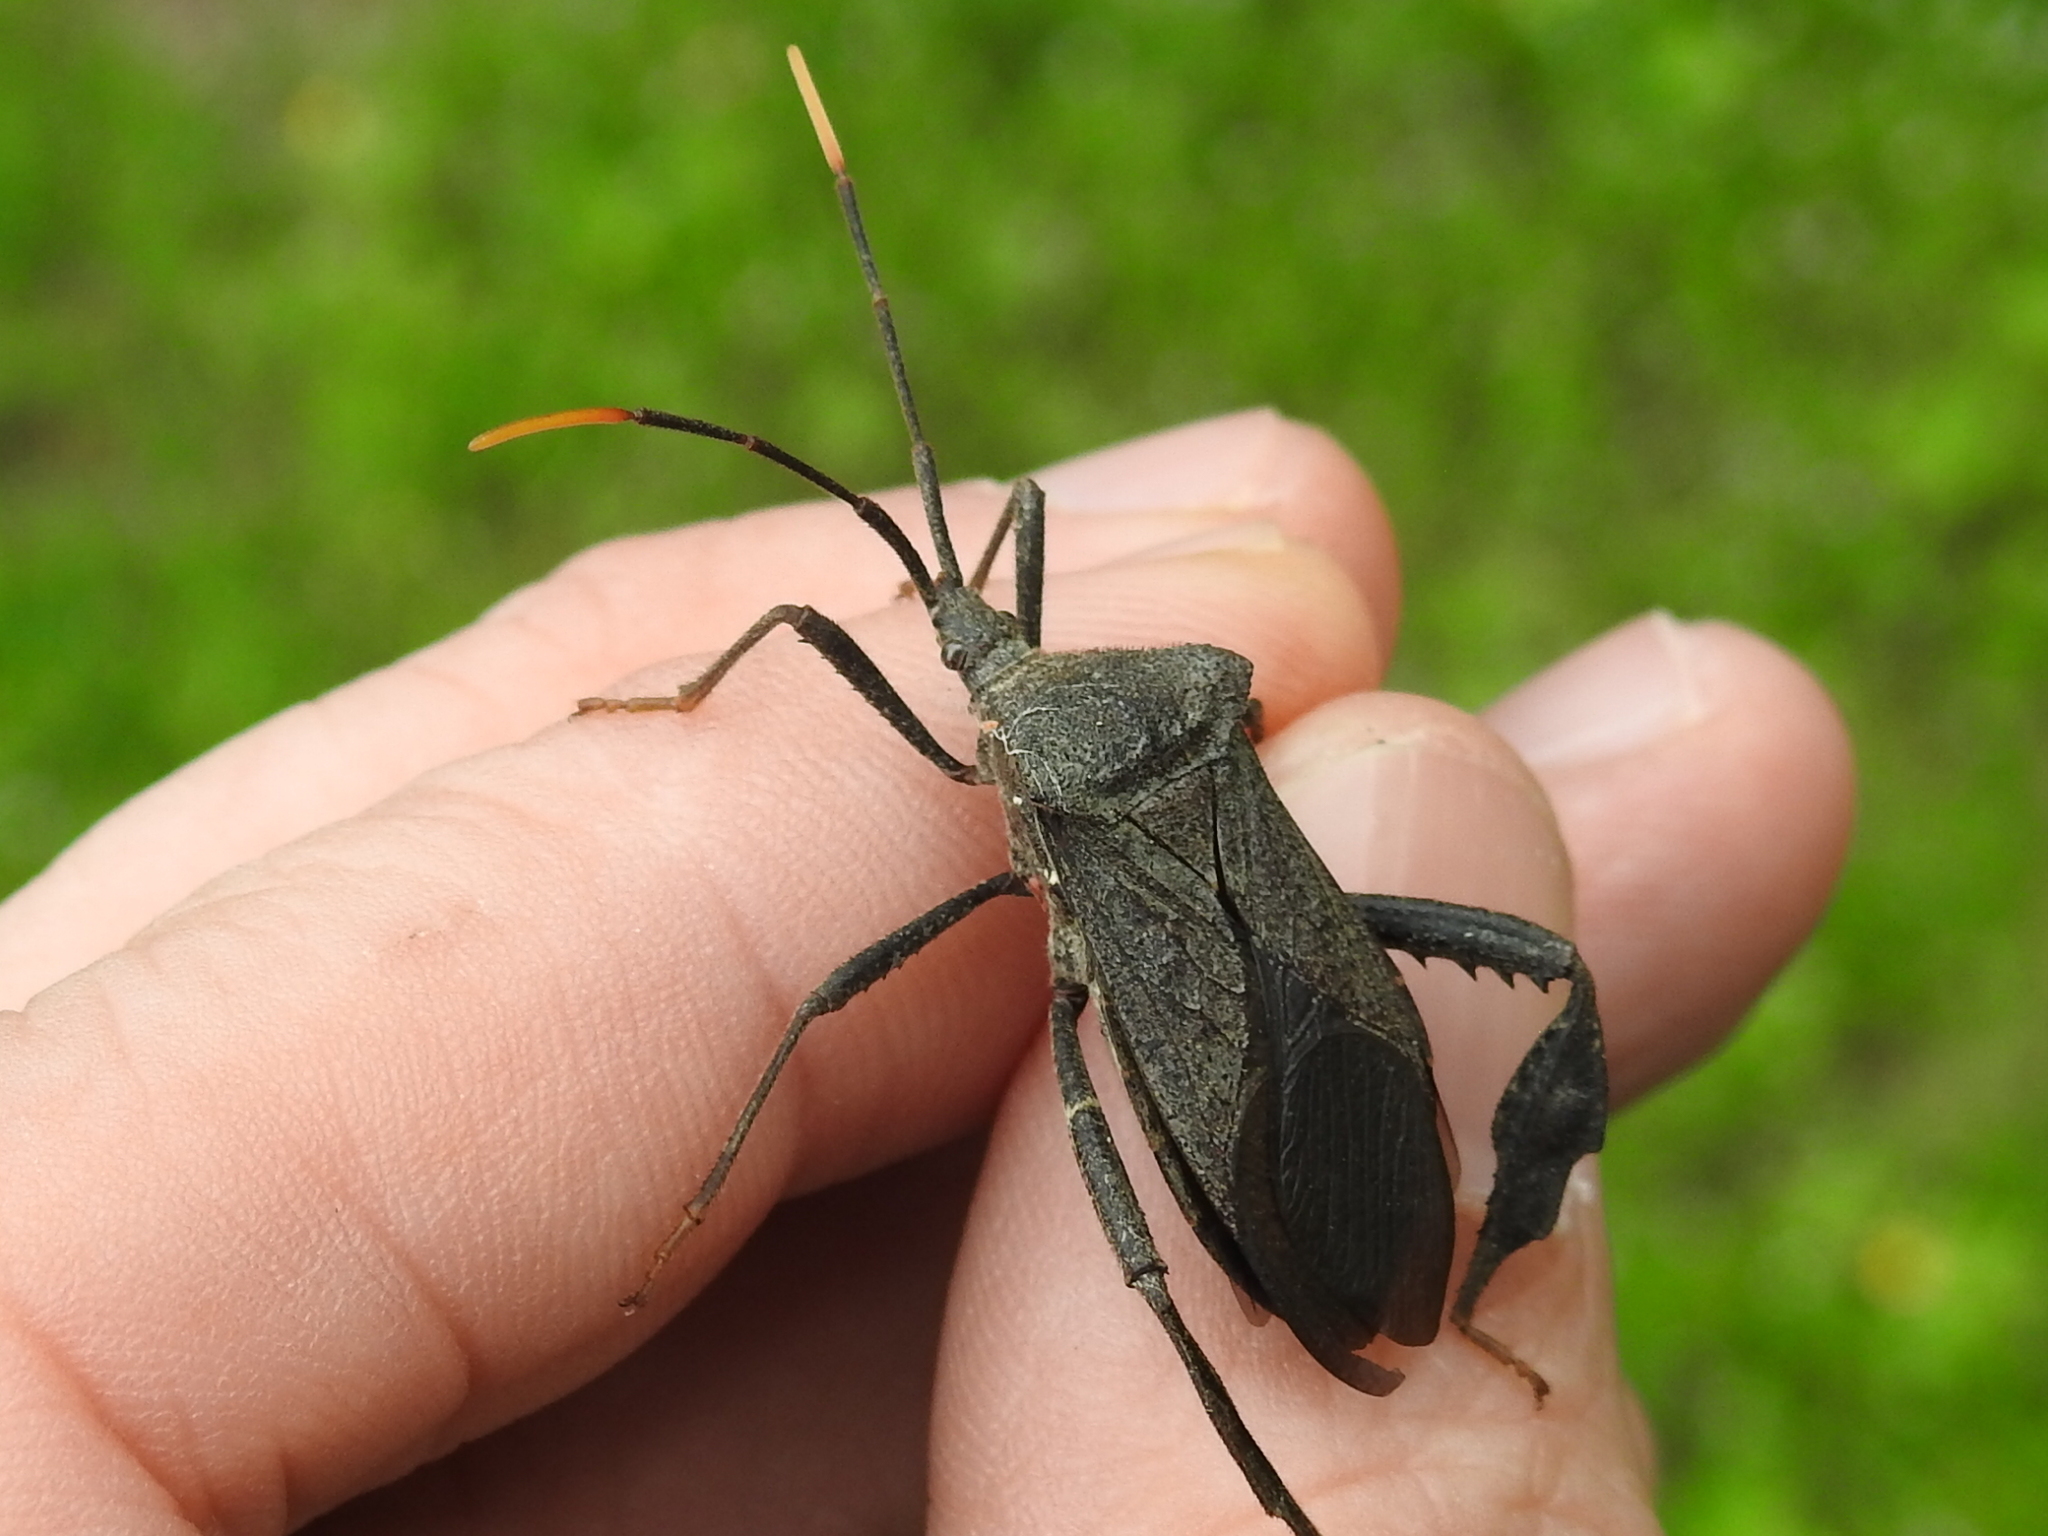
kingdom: Animalia
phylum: Arthropoda
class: Insecta
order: Hemiptera
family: Coreidae
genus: Acanthocephala
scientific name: Acanthocephala terminalis
